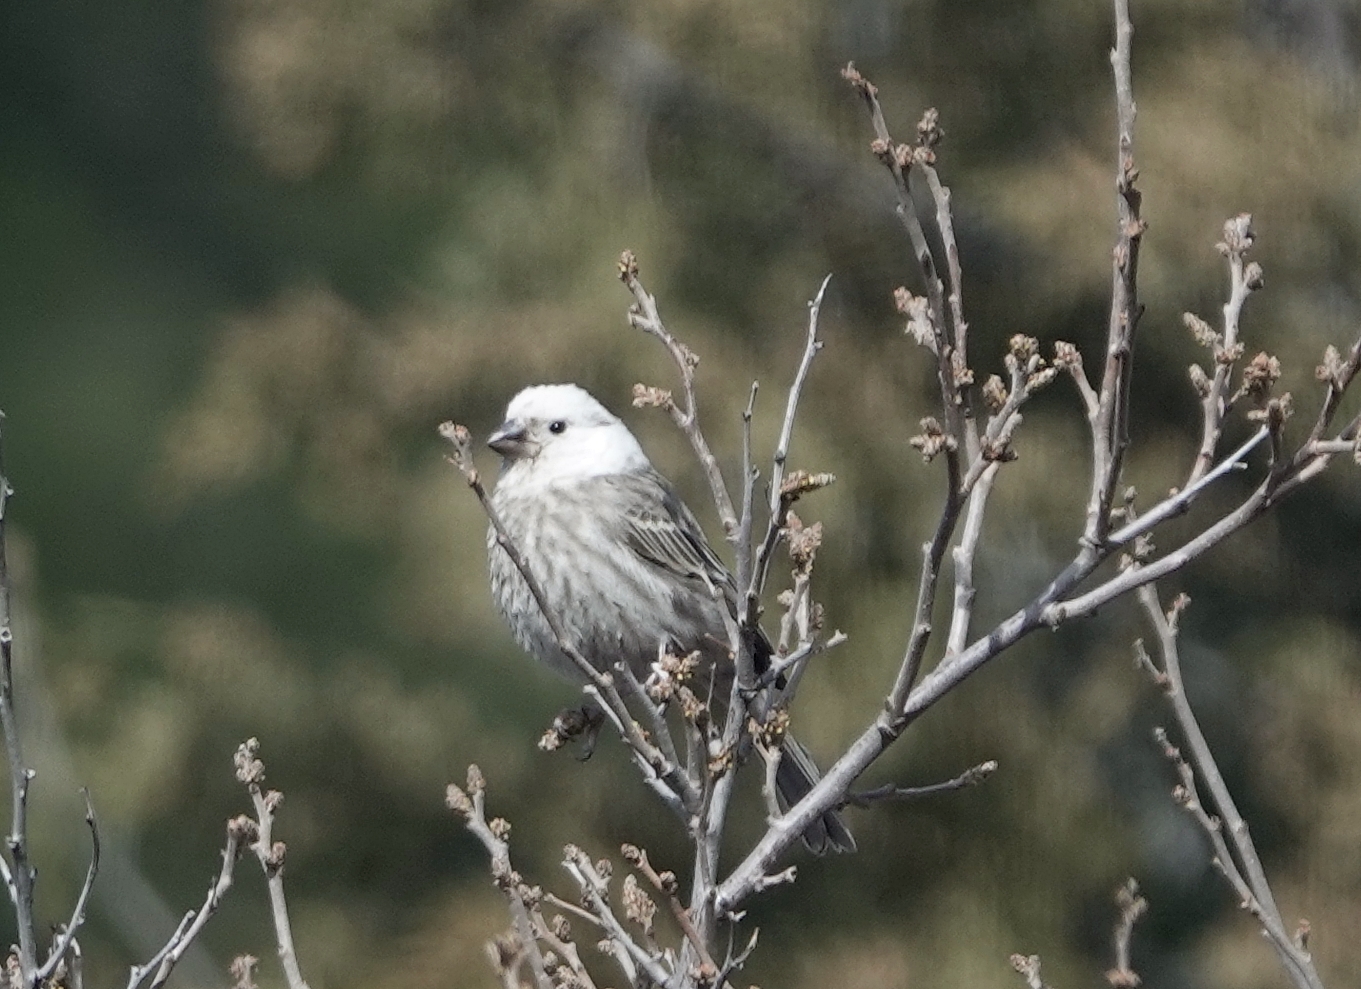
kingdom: Animalia
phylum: Chordata
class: Aves
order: Passeriformes
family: Fringillidae
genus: Haemorhous
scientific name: Haemorhous mexicanus
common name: House finch
